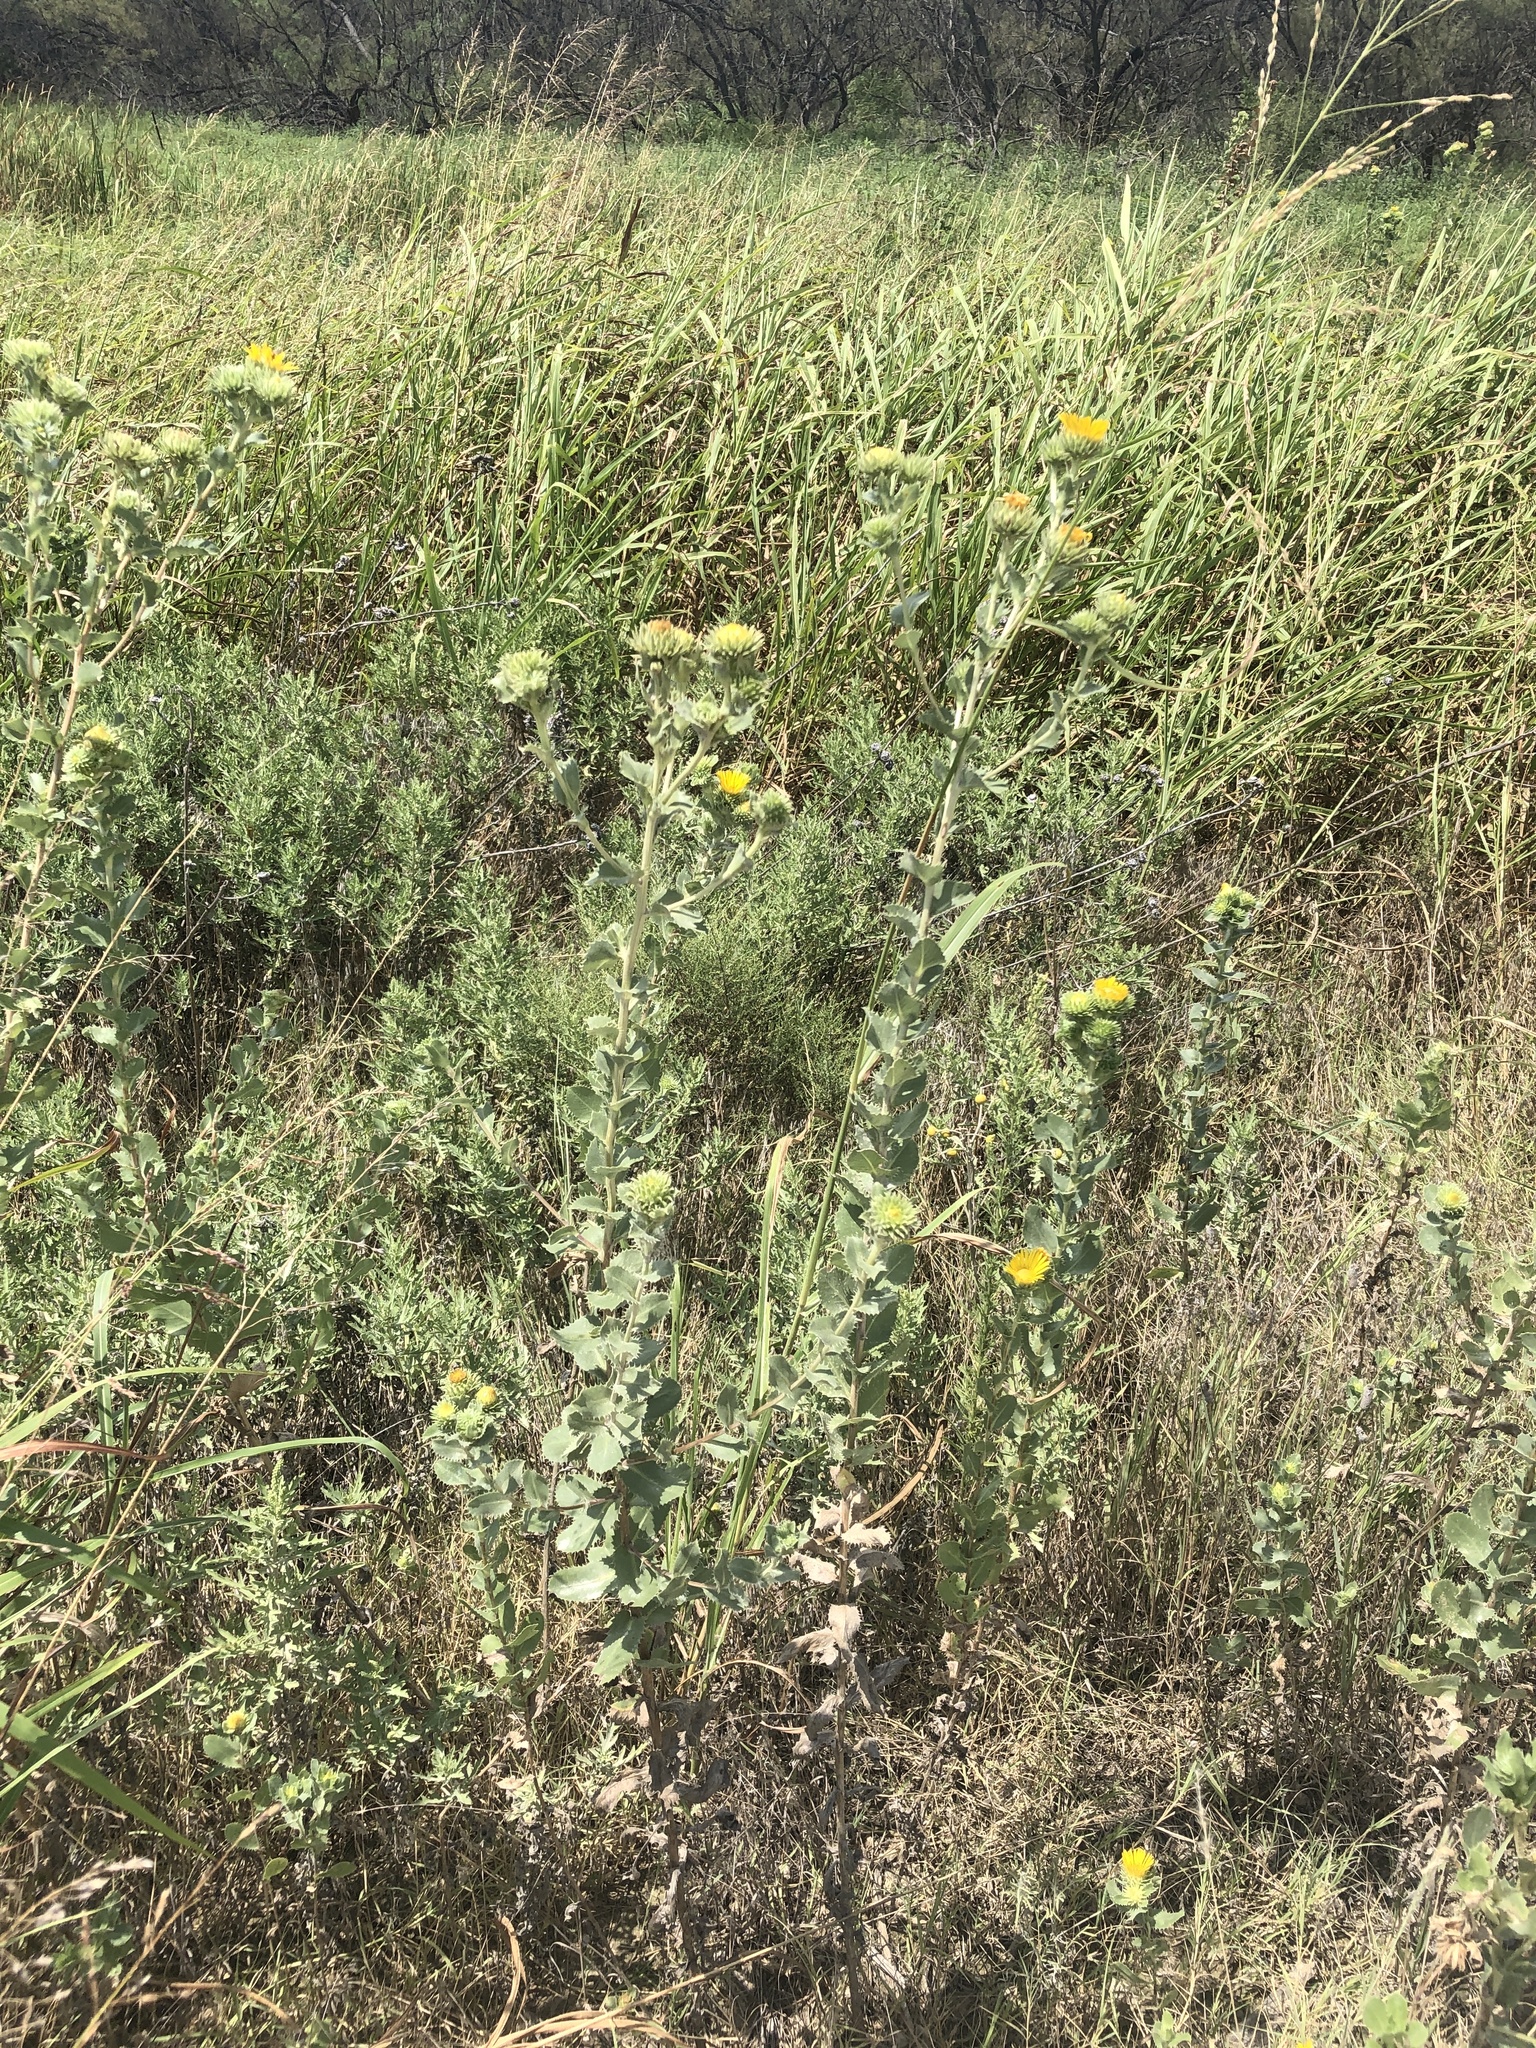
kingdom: Plantae
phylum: Tracheophyta
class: Magnoliopsida
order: Asterales
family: Asteraceae
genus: Grindelia
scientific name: Grindelia ciliata
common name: Goldenweed
